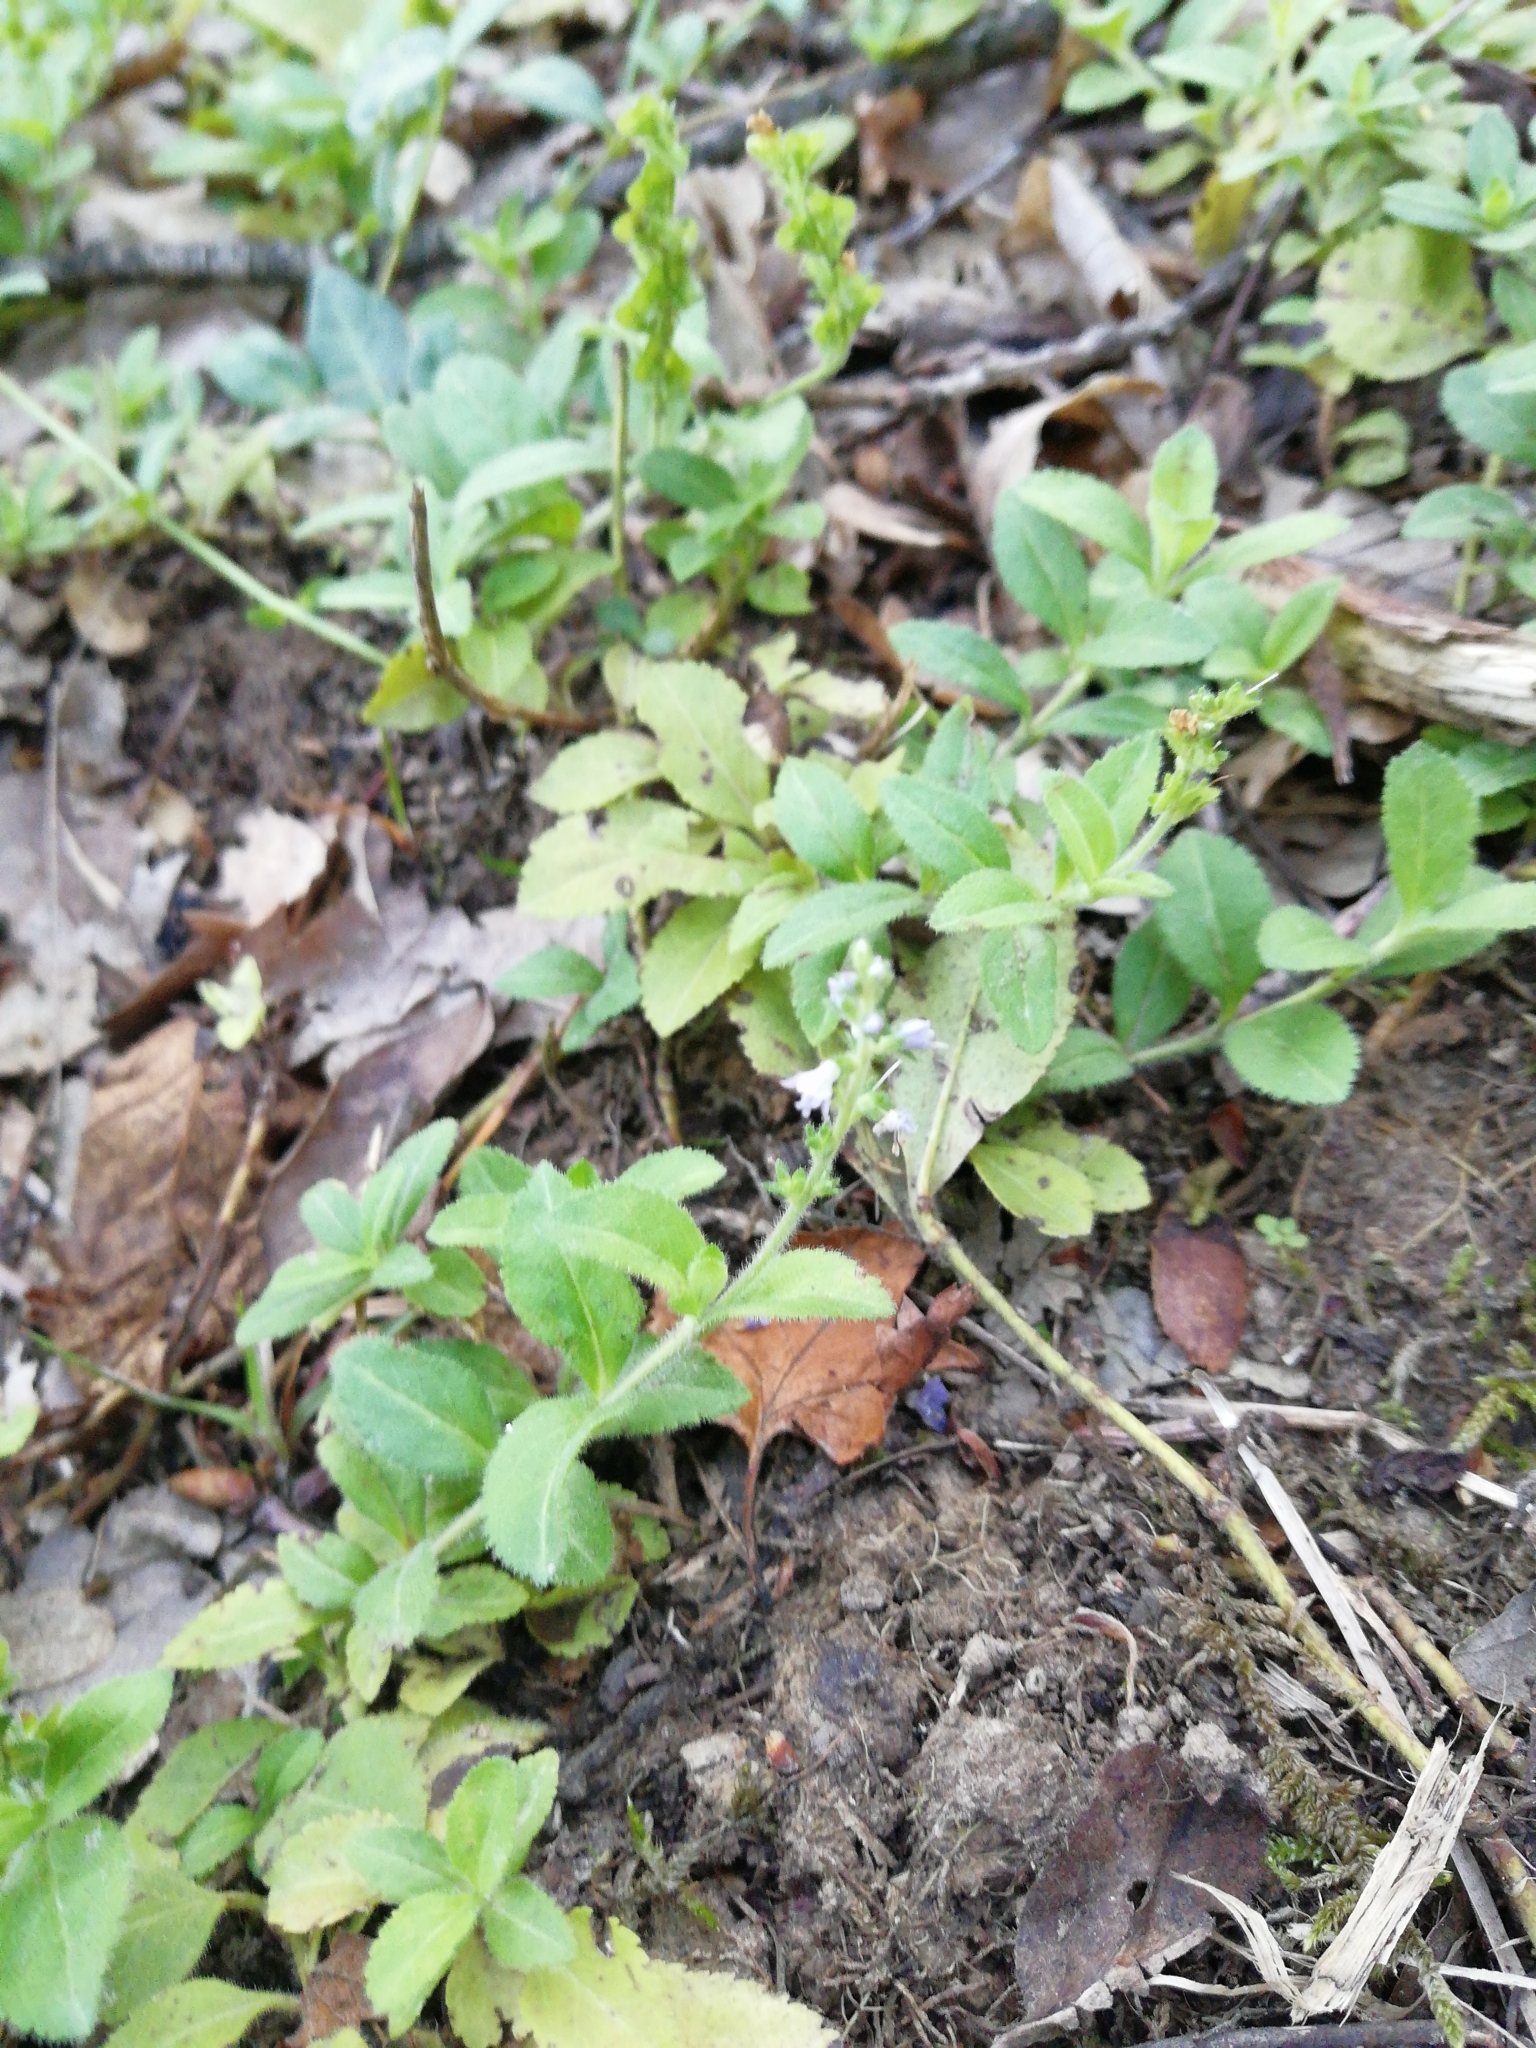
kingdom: Plantae
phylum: Tracheophyta
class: Magnoliopsida
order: Lamiales
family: Plantaginaceae
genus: Veronica
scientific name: Veronica officinalis
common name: Common speedwell
